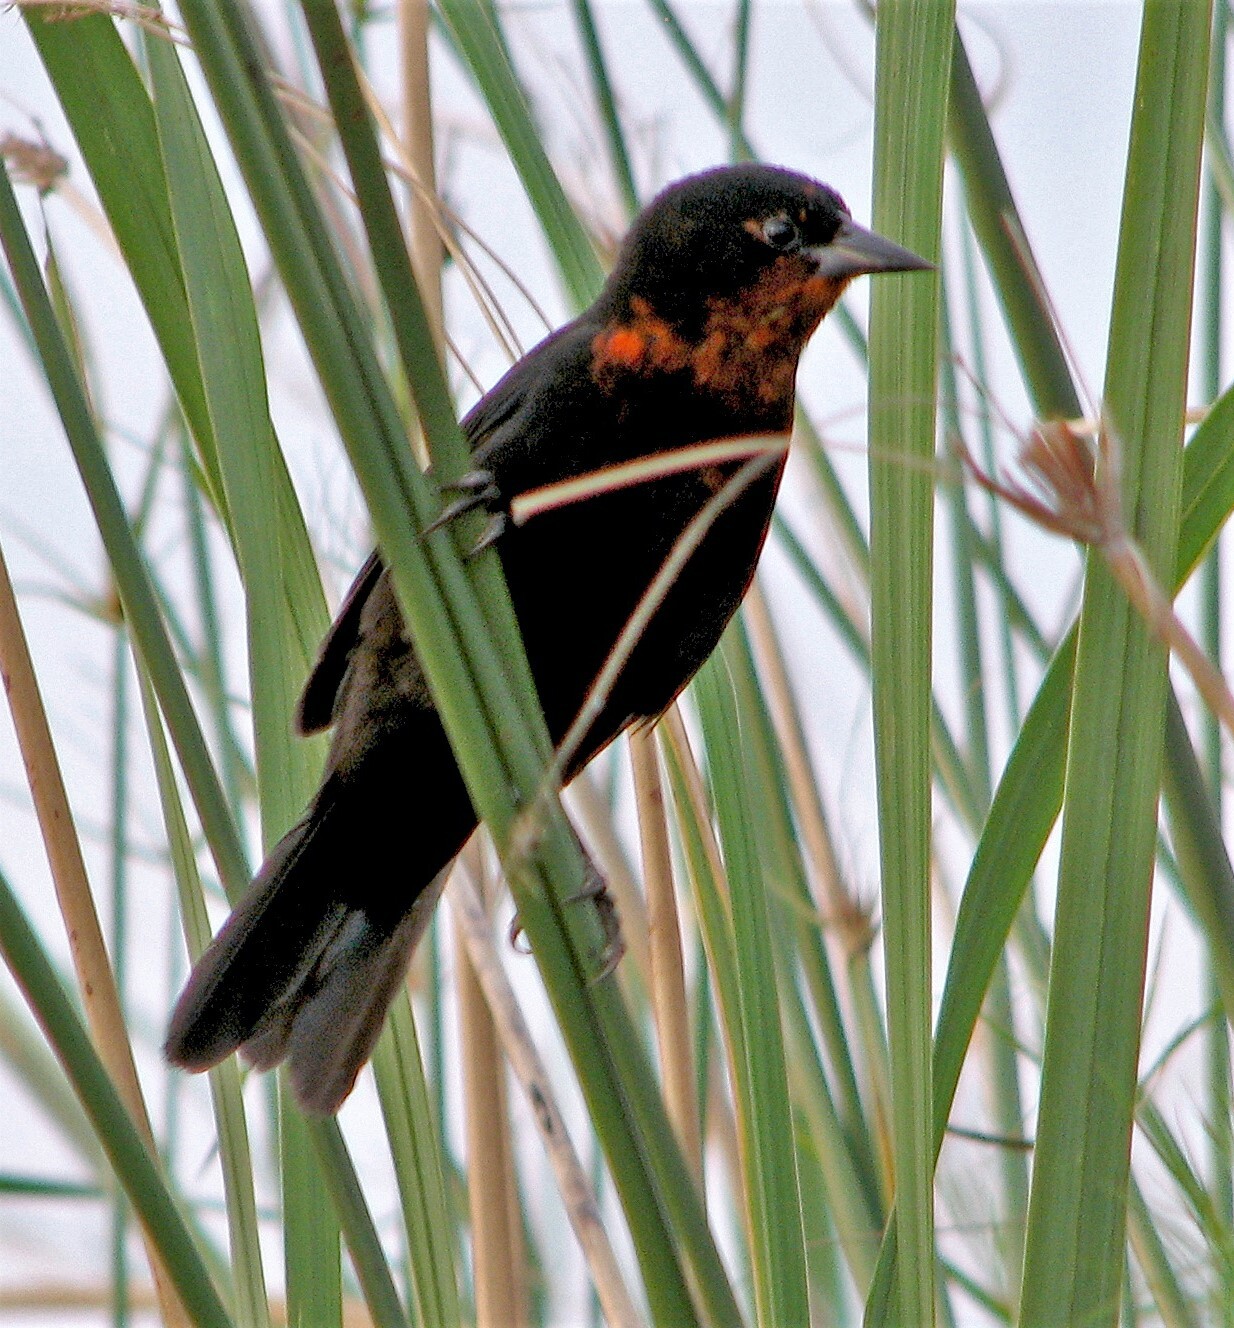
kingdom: Animalia
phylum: Chordata
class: Aves
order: Passeriformes
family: Icteridae
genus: Amblyramphus
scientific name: Amblyramphus holosericeus
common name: Scarlet-headed blackbird
